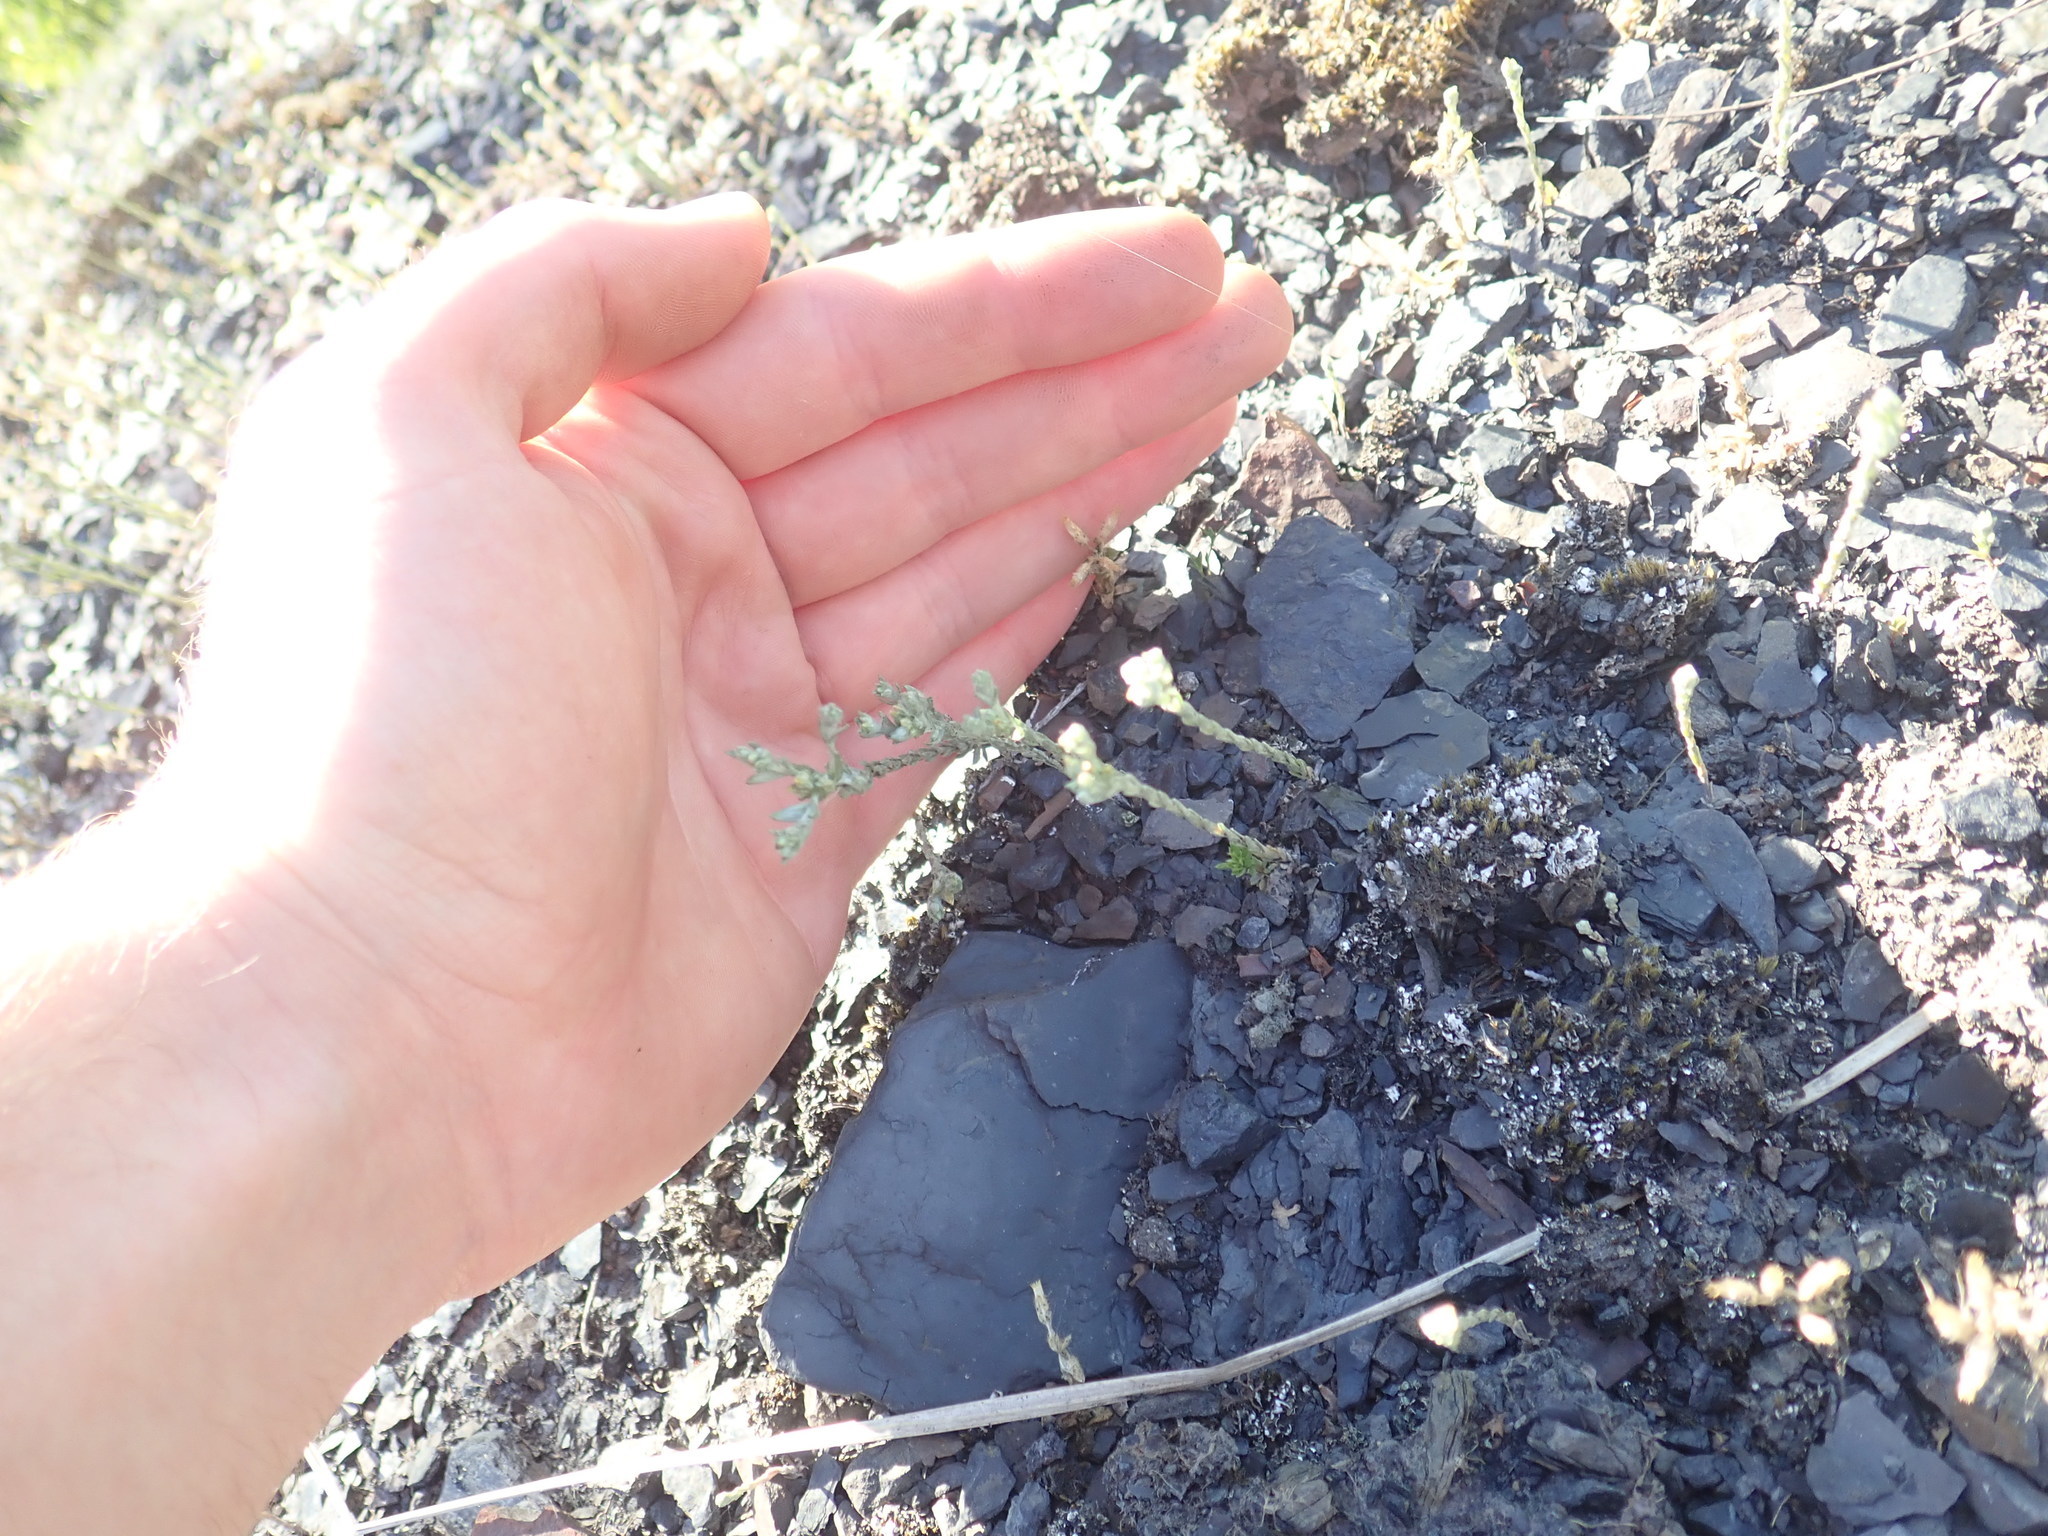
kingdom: Plantae
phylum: Tracheophyta
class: Magnoliopsida
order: Asterales
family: Asteraceae
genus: Logfia
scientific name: Logfia minima
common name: Little cottonrose
